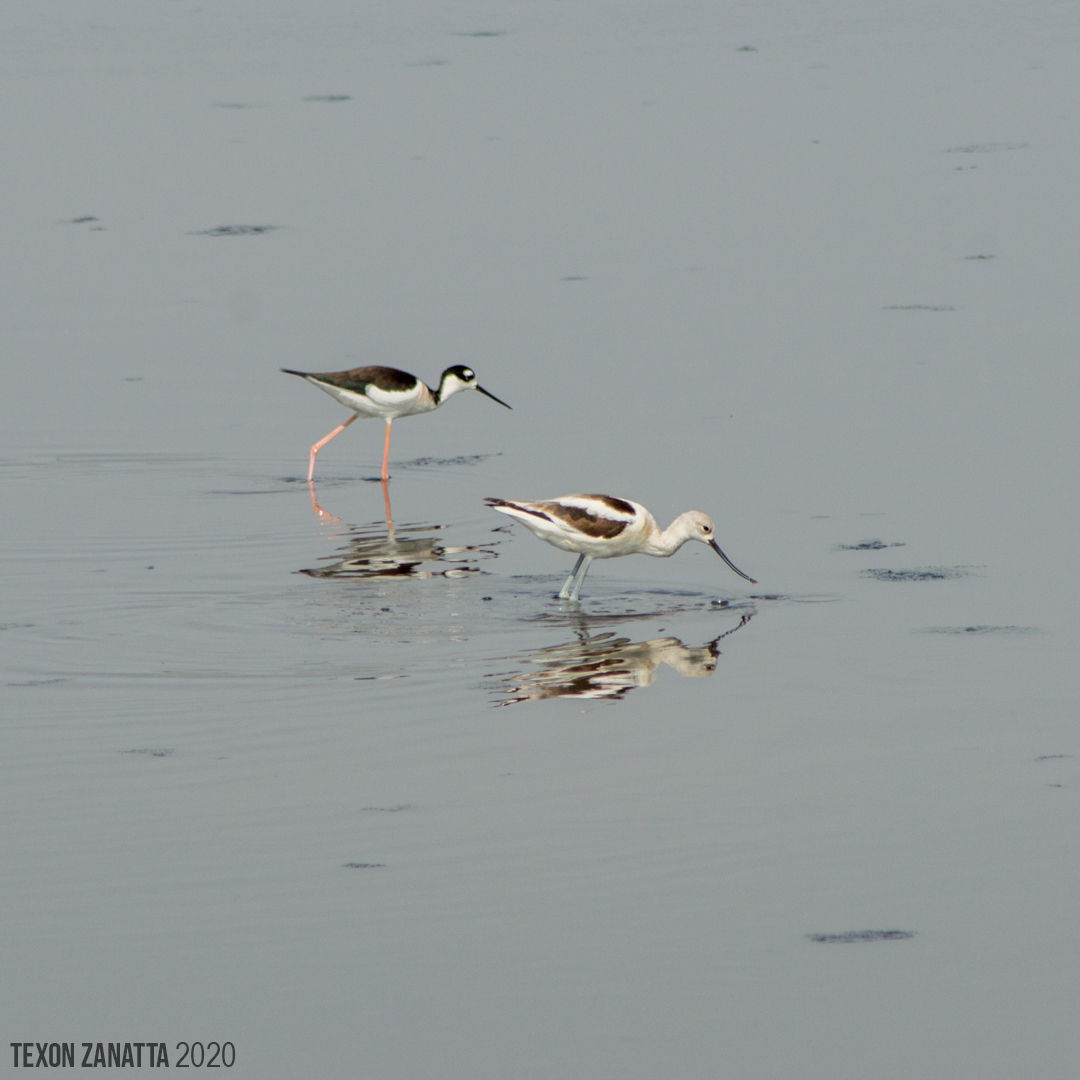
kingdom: Animalia
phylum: Chordata
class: Aves
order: Charadriiformes
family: Recurvirostridae
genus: Recurvirostra
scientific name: Recurvirostra americana
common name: American avocet
